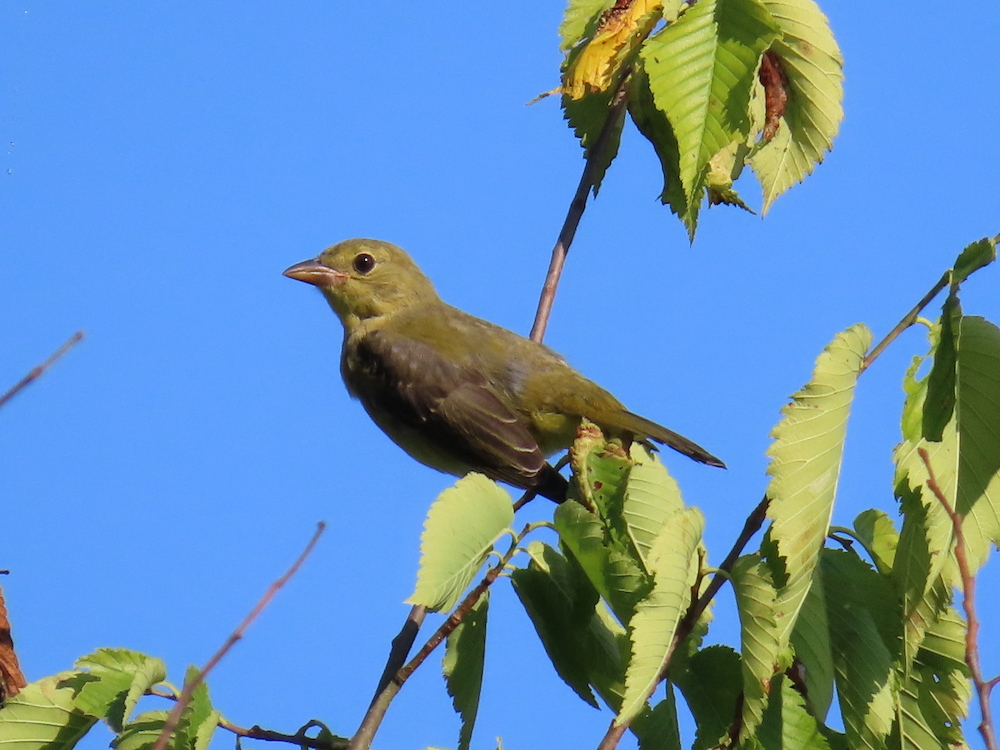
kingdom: Animalia
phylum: Chordata
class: Aves
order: Passeriformes
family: Cardinalidae
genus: Piranga
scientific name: Piranga olivacea
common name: Scarlet tanager
